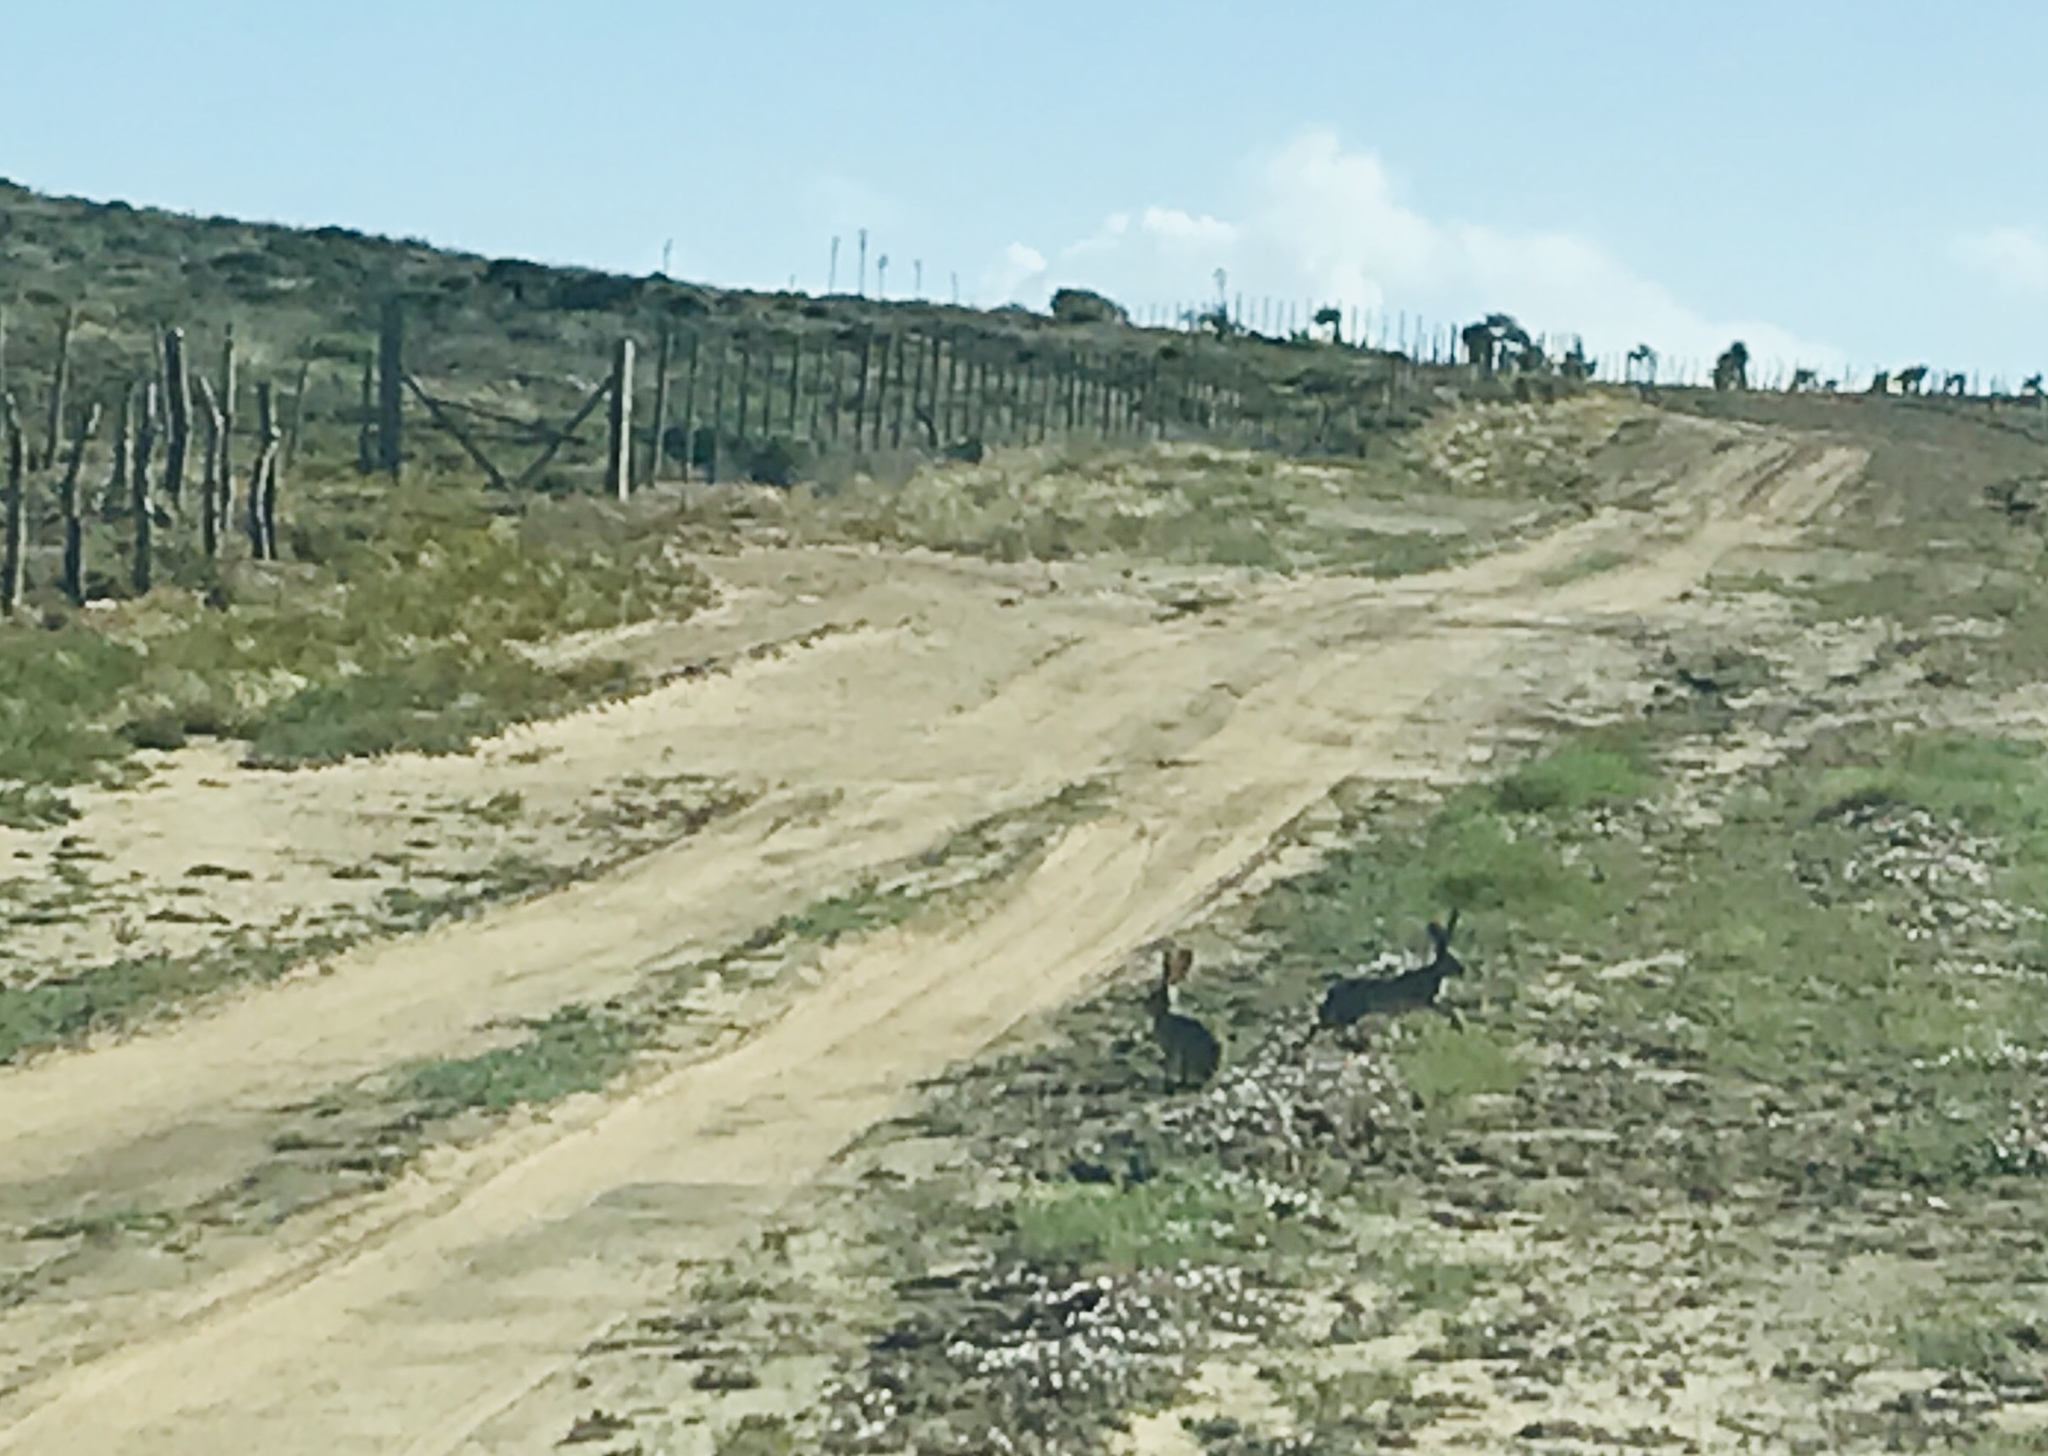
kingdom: Animalia
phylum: Chordata
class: Mammalia
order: Lagomorpha
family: Leporidae
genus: Lepus
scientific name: Lepus californicus
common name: Black-tailed jackrabbit
